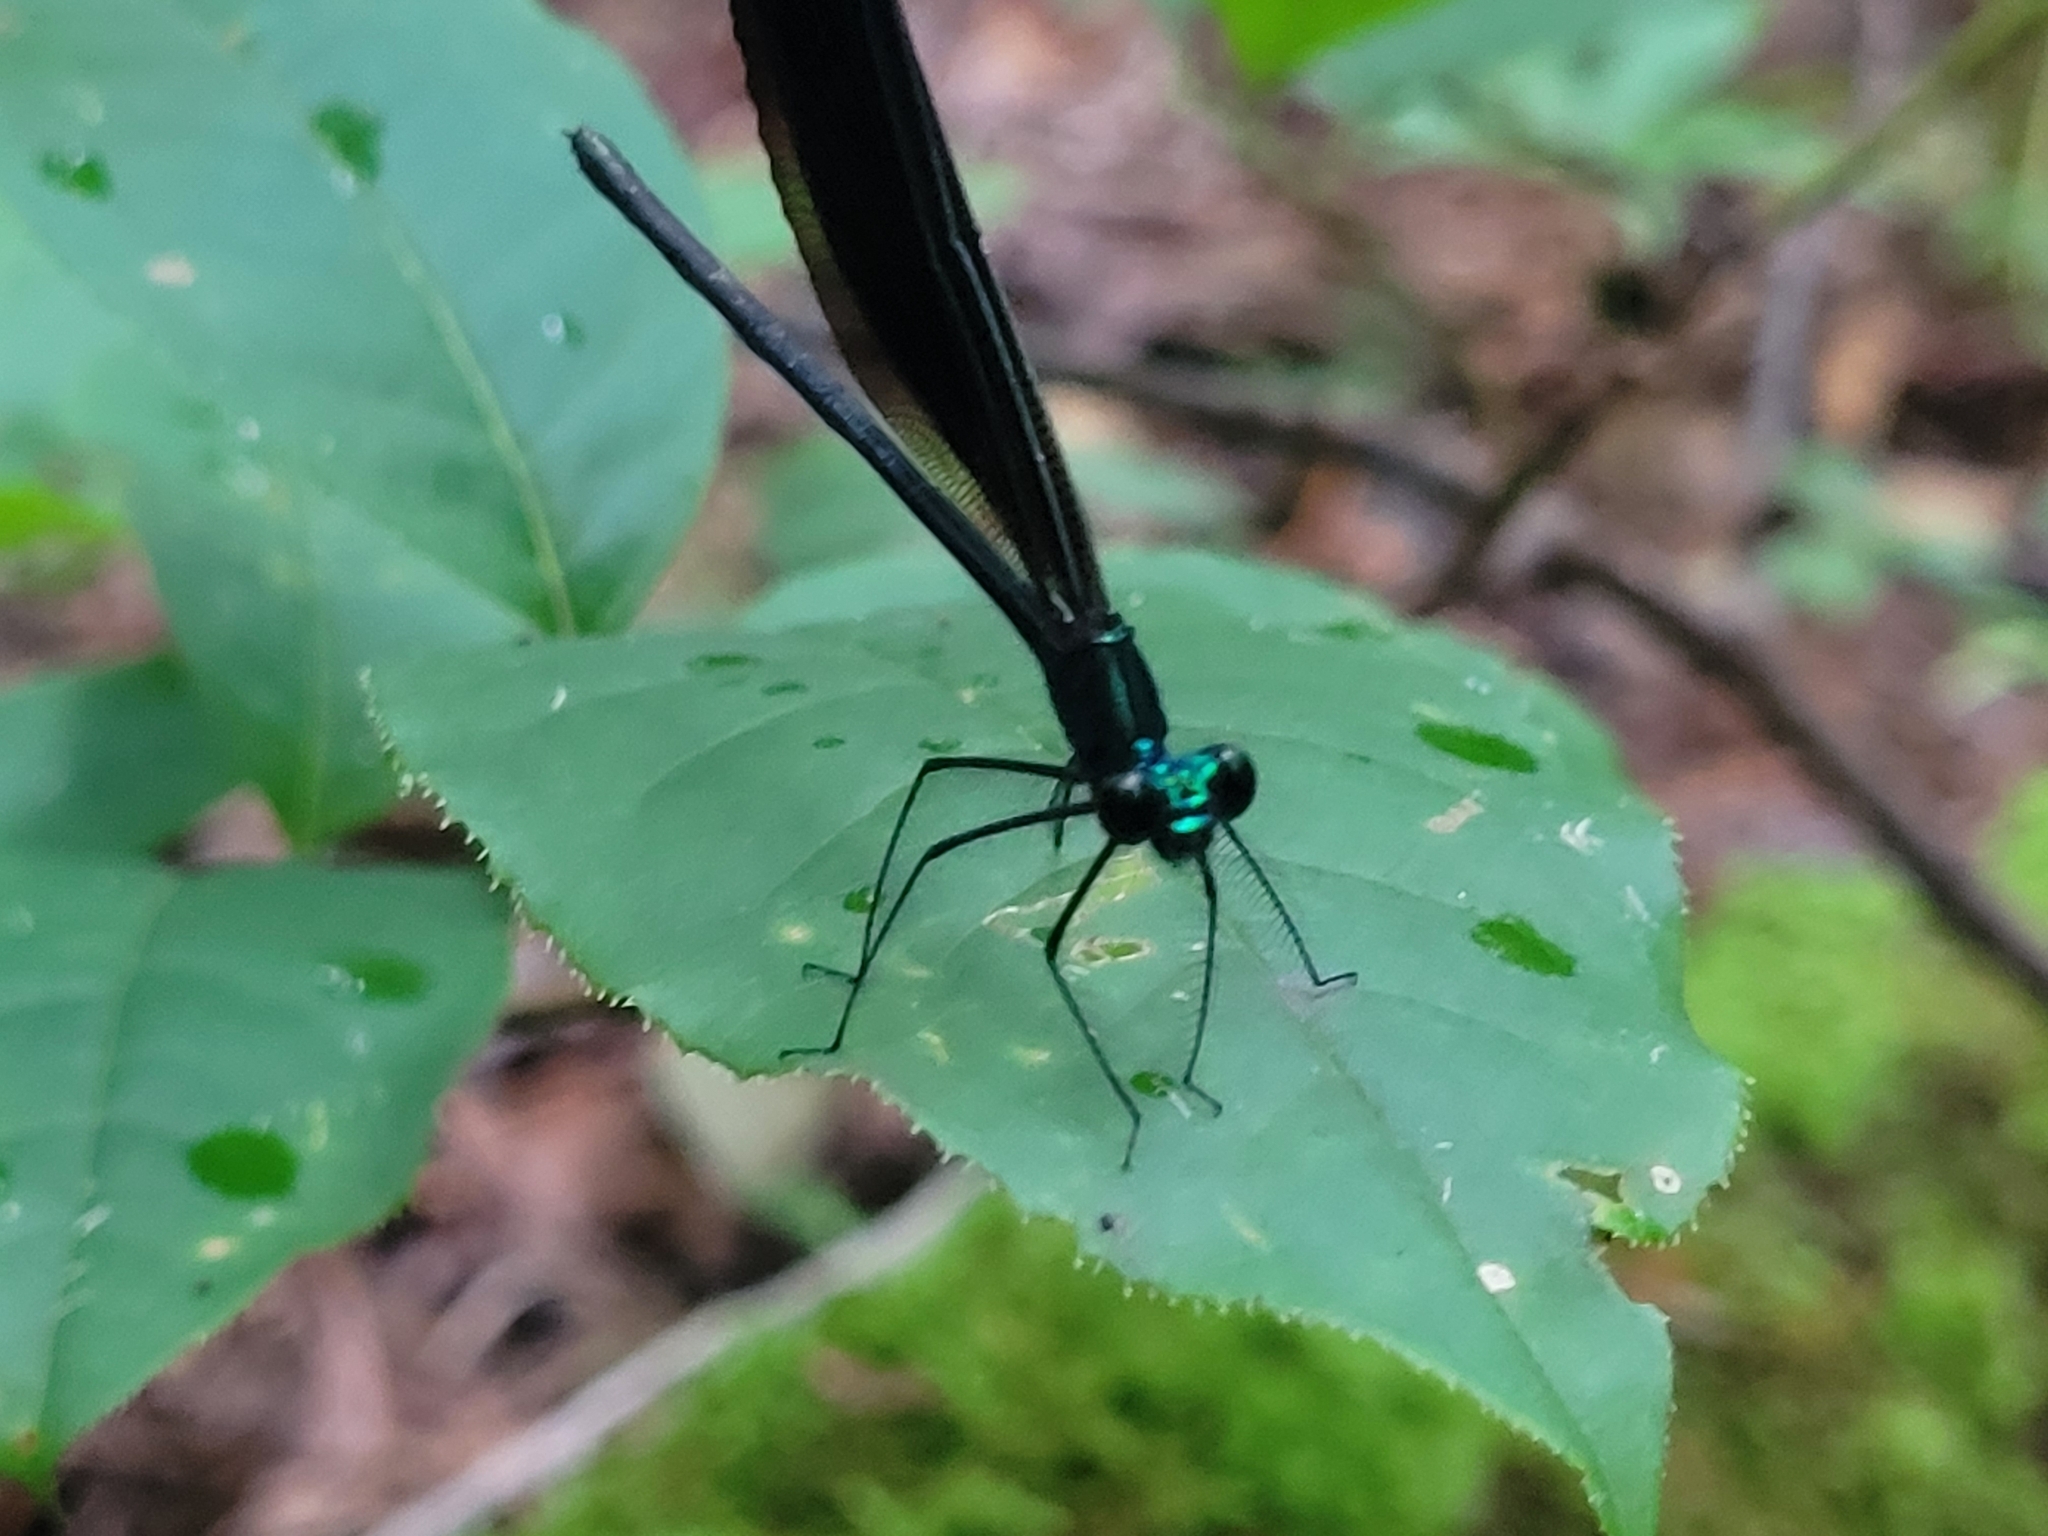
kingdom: Animalia
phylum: Arthropoda
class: Insecta
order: Odonata
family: Calopterygidae
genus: Calopteryx
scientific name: Calopteryx maculata
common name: Ebony jewelwing
